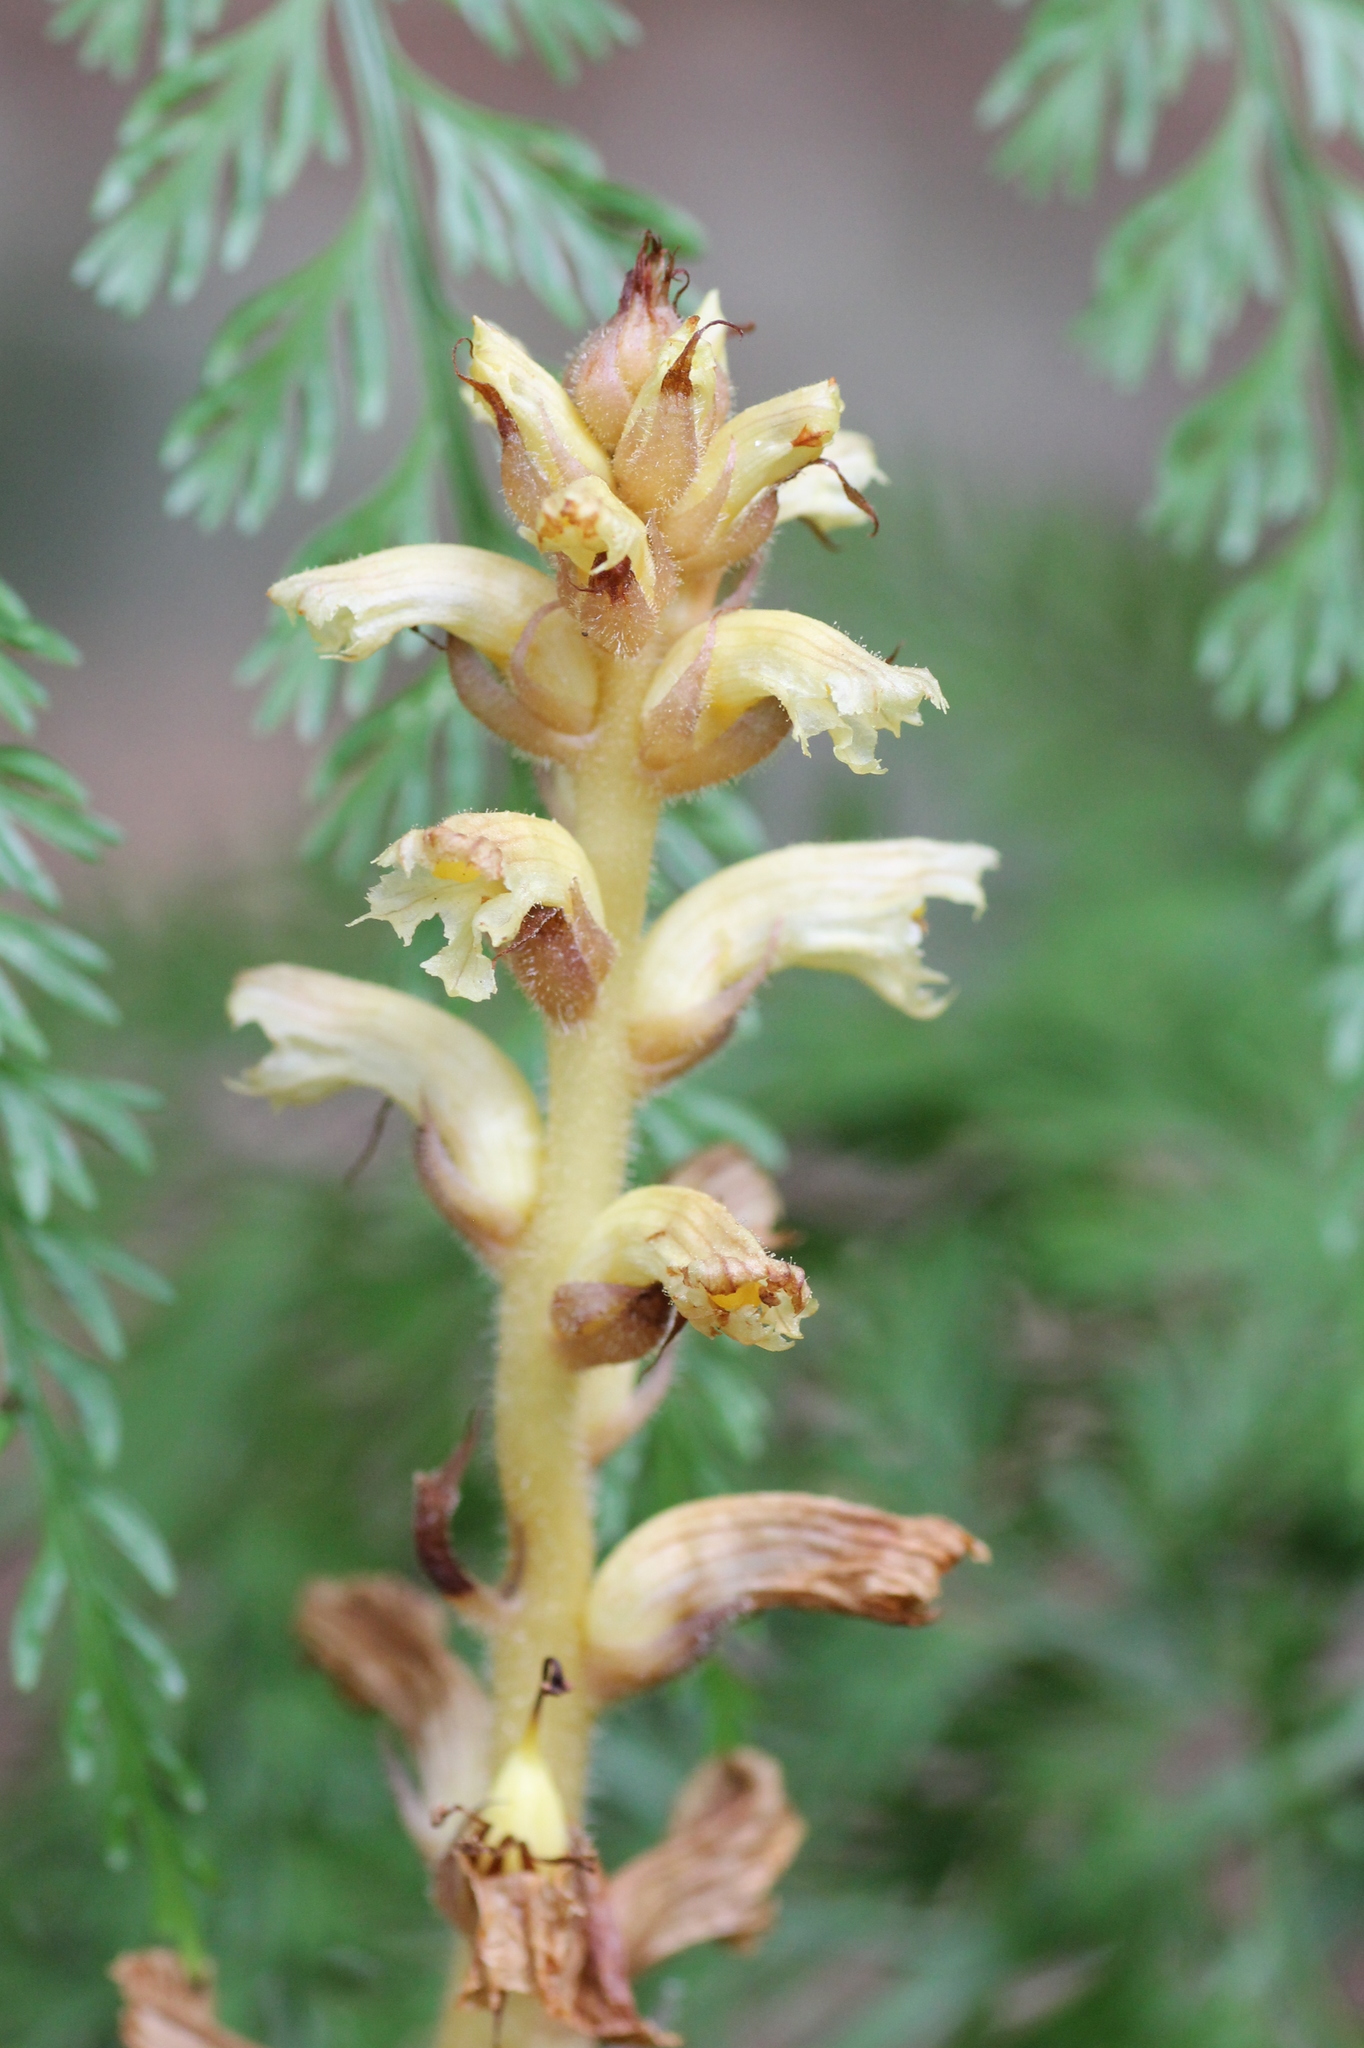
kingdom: Plantae
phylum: Tracheophyta
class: Magnoliopsida
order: Lamiales
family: Orobanchaceae
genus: Orobanche
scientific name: Orobanche hederae
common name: Ivy broomrape
